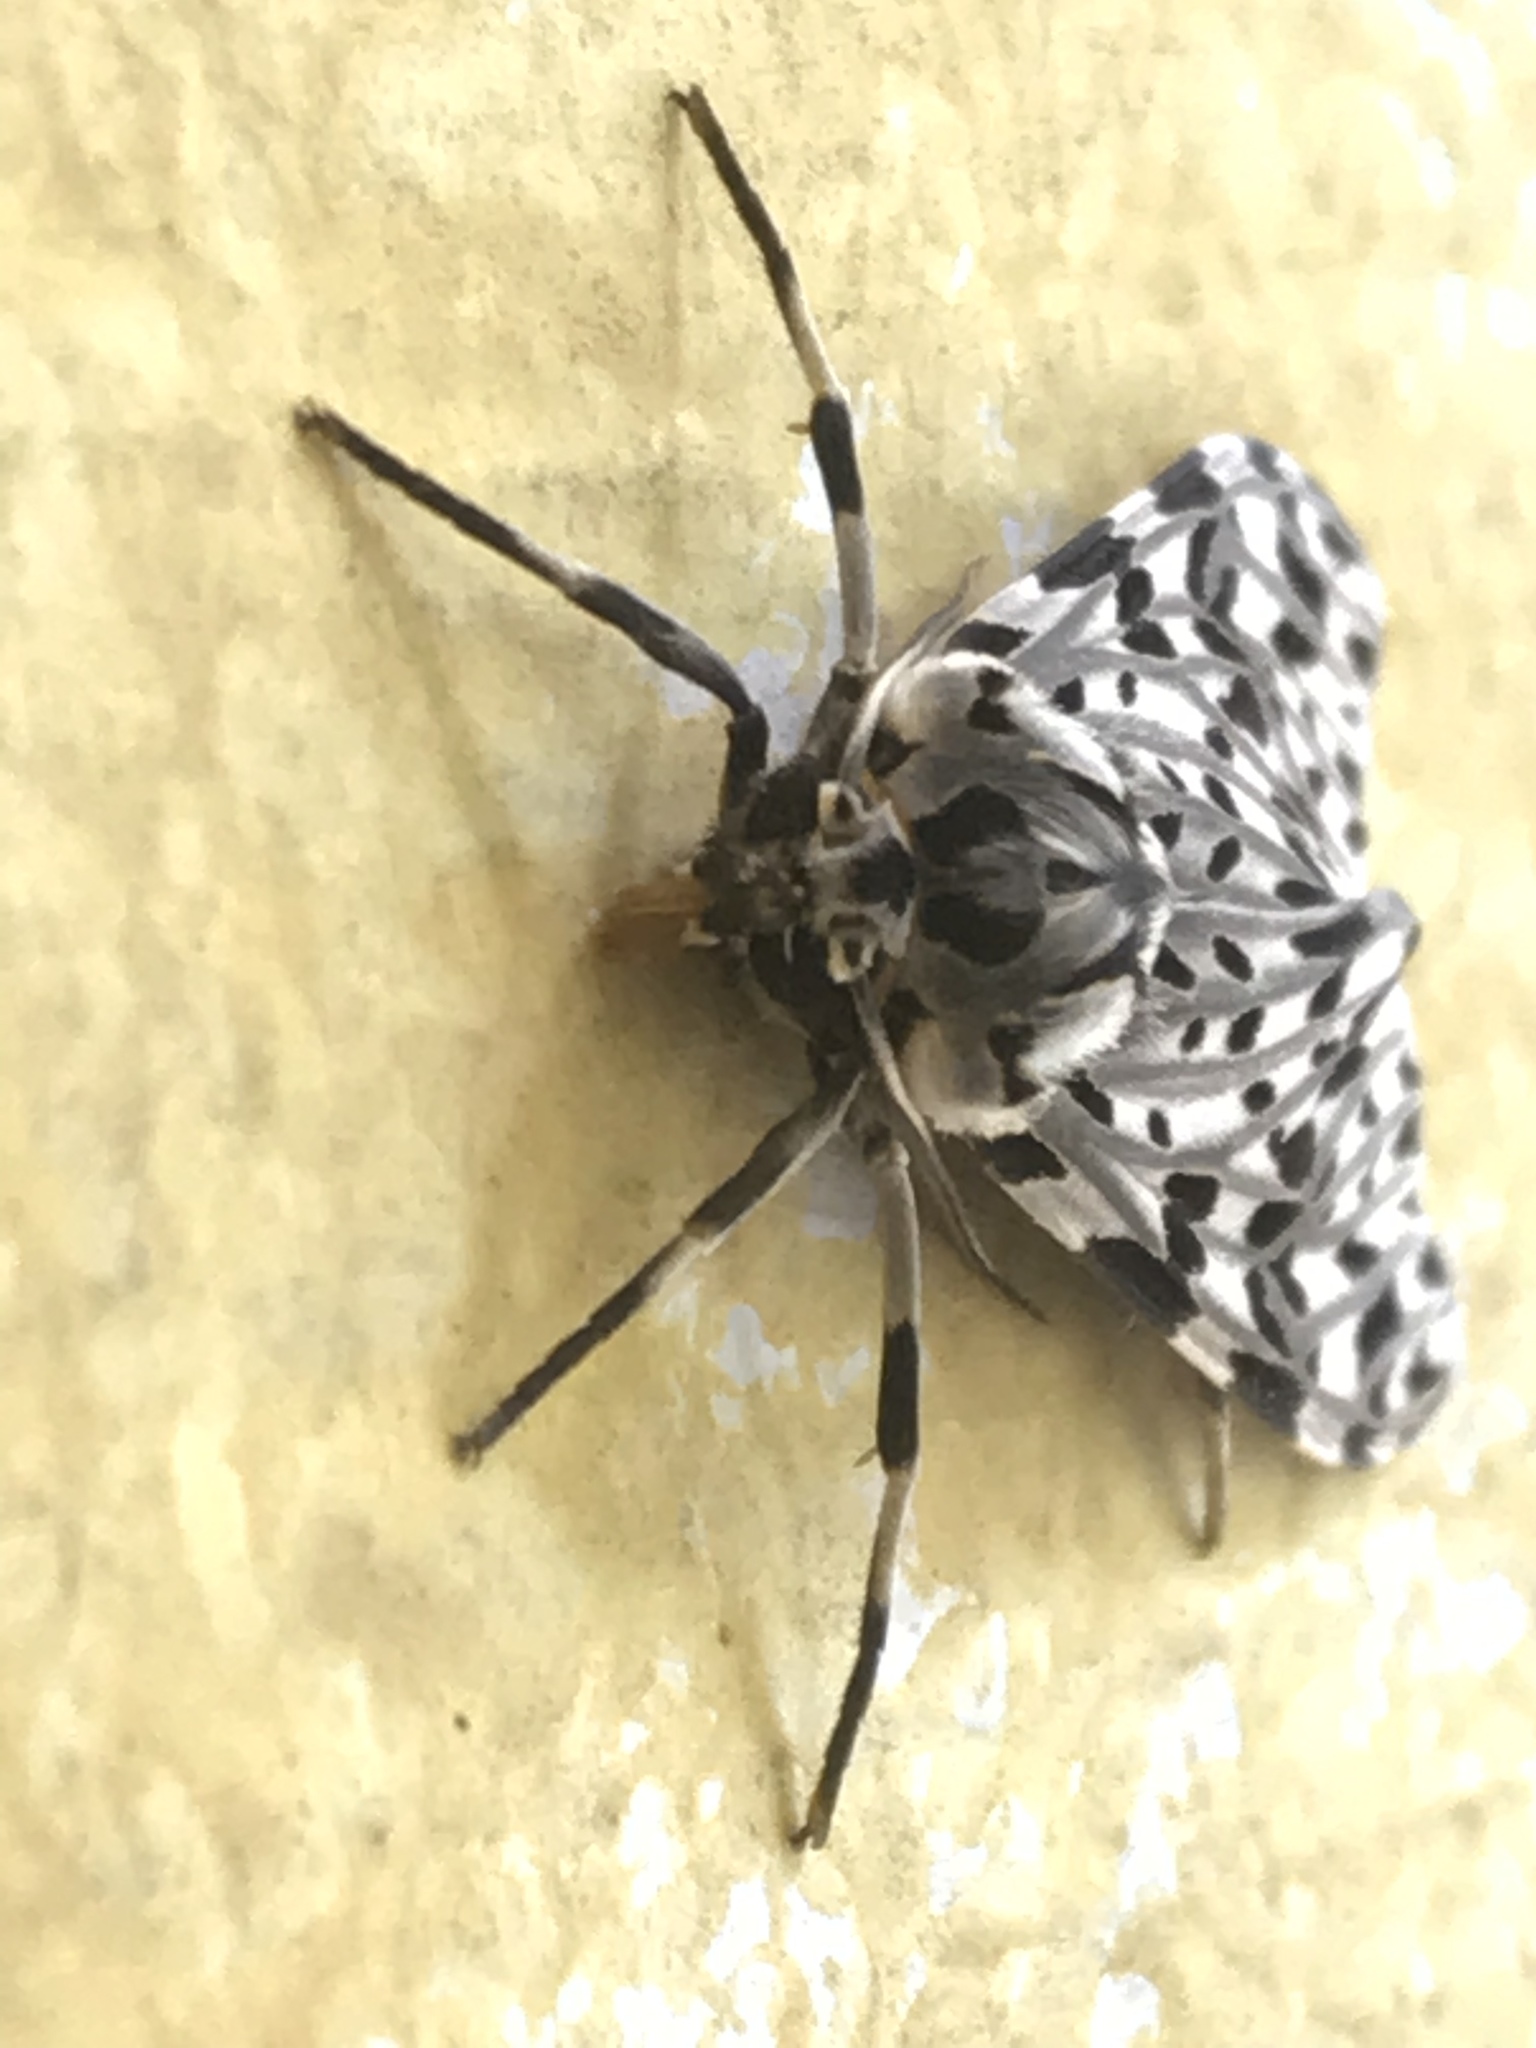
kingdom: Animalia
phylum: Arthropoda
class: Insecta
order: Lepidoptera
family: Erebidae
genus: Eucereon
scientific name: Eucereon confinis
